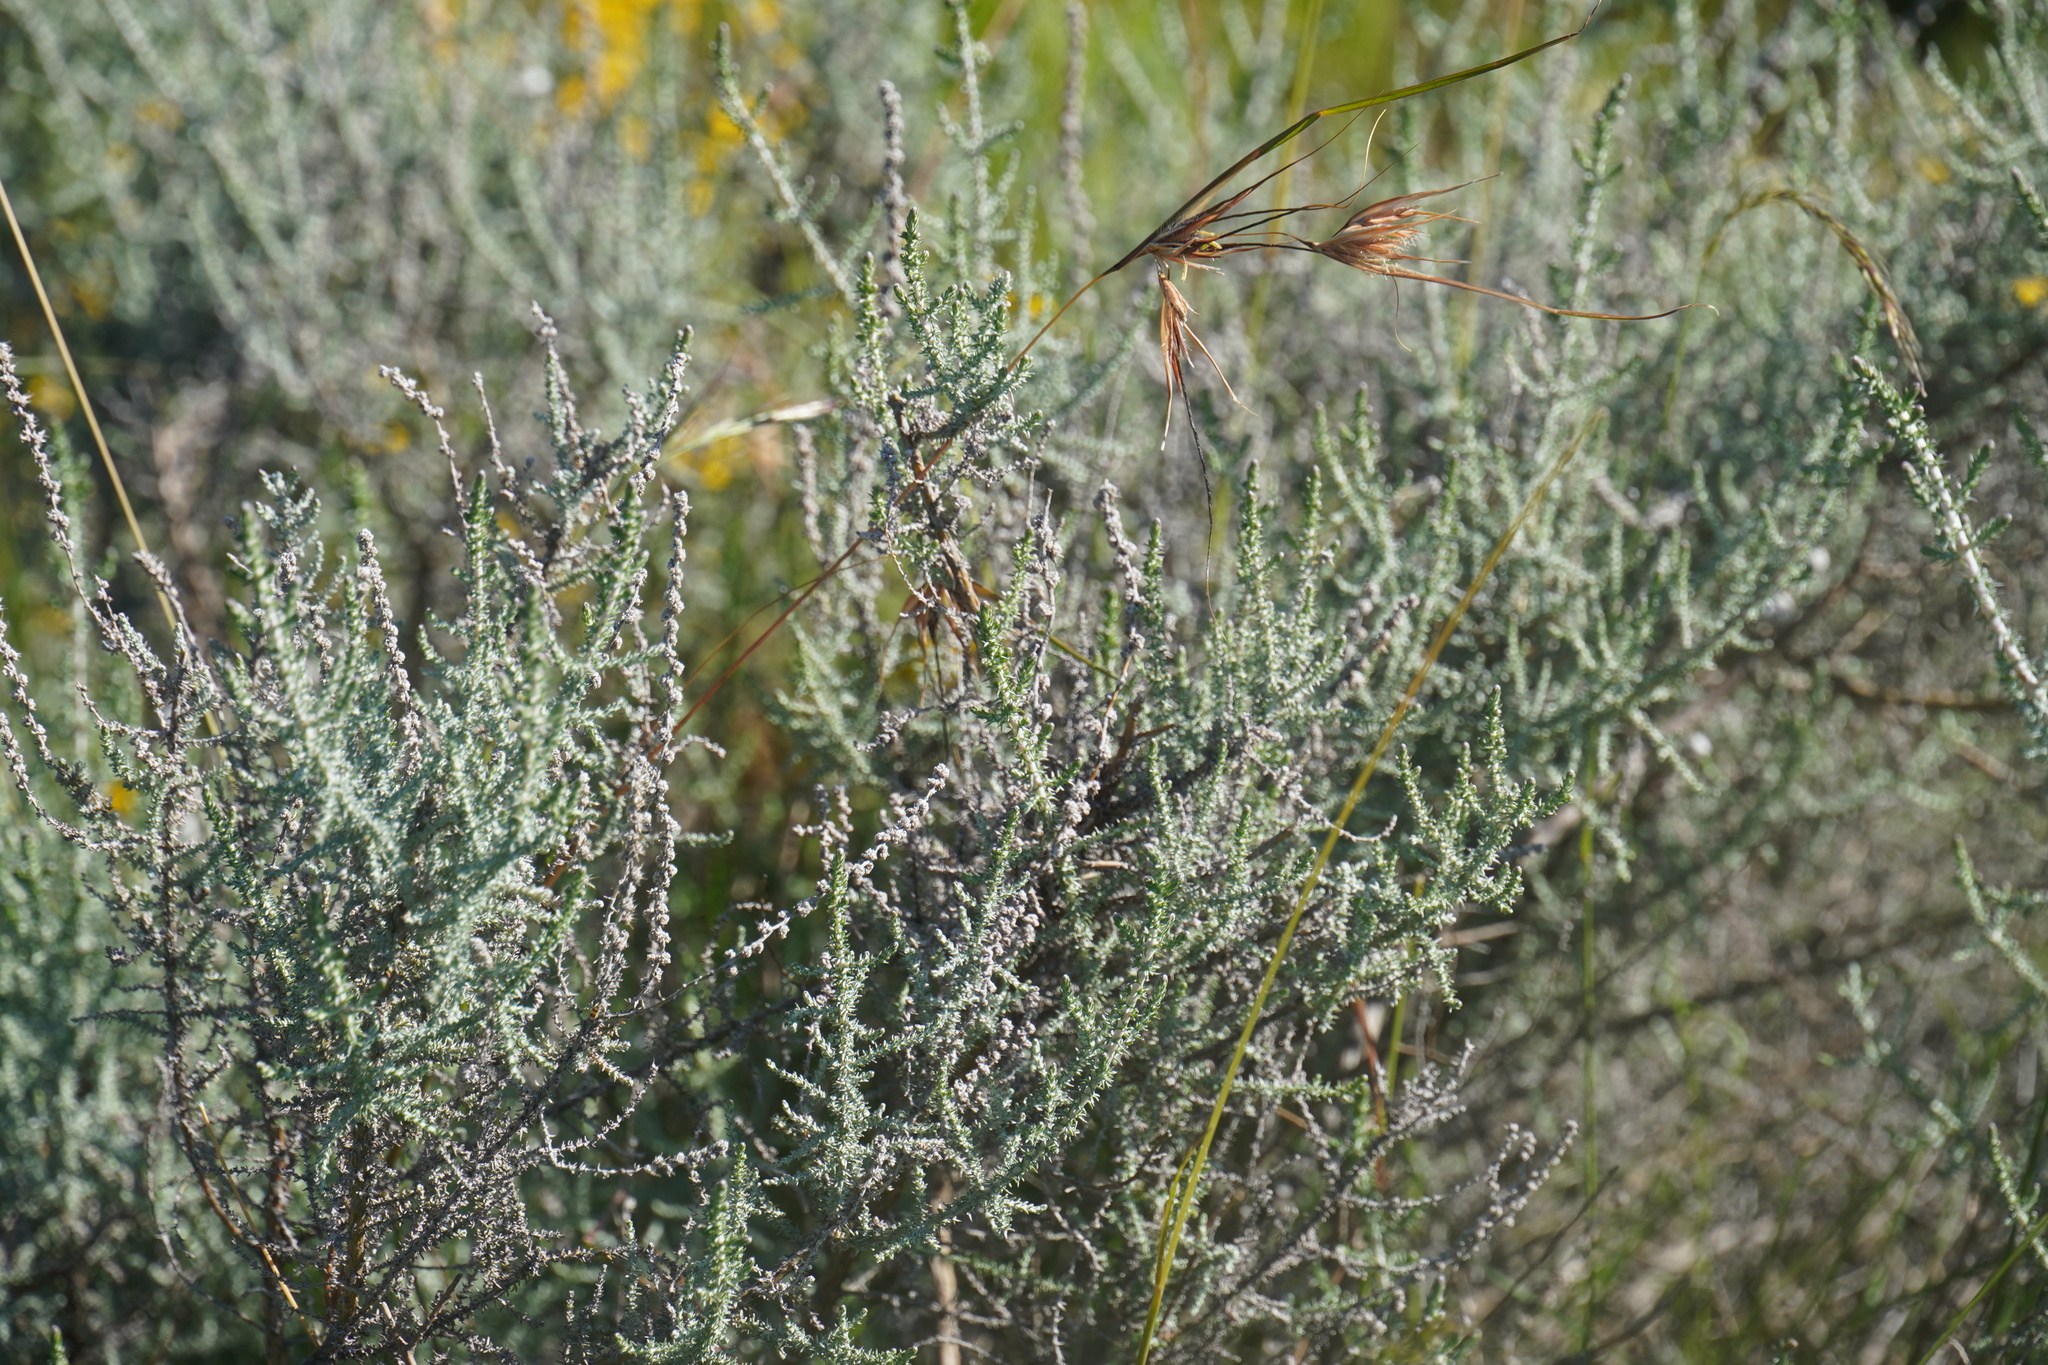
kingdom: Plantae
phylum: Tracheophyta
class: Magnoliopsida
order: Asterales
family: Asteraceae
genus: Seriphium
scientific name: Seriphium
